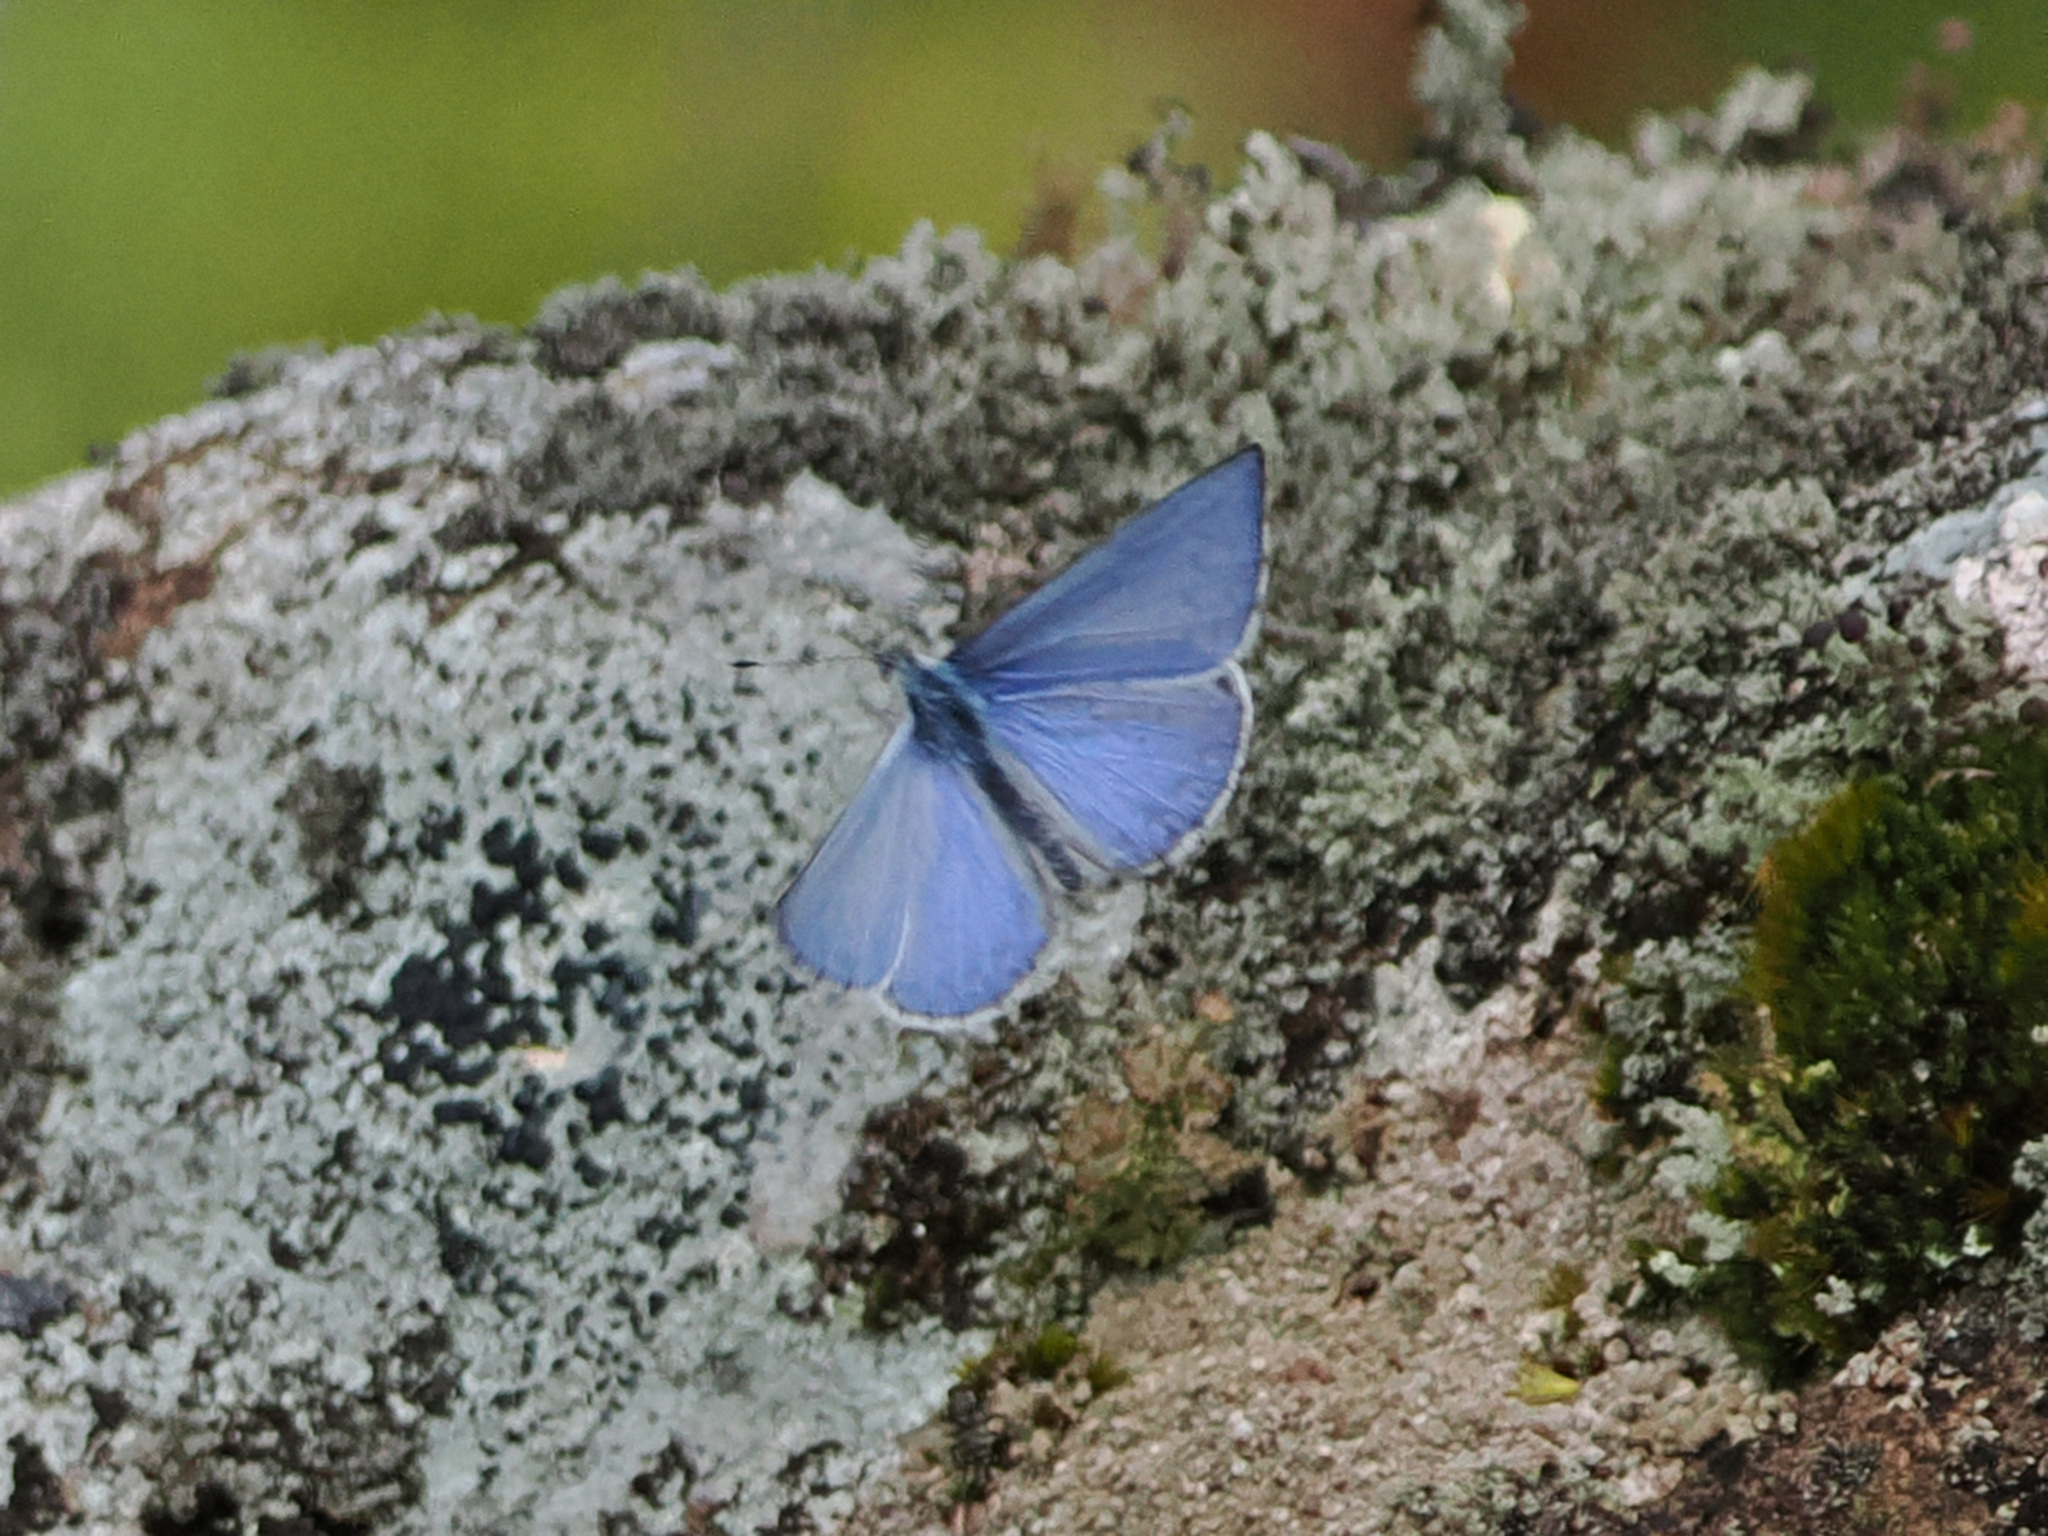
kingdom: Animalia
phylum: Arthropoda
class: Insecta
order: Lepidoptera
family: Lycaenidae
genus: Udara
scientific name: Udara dilectus
